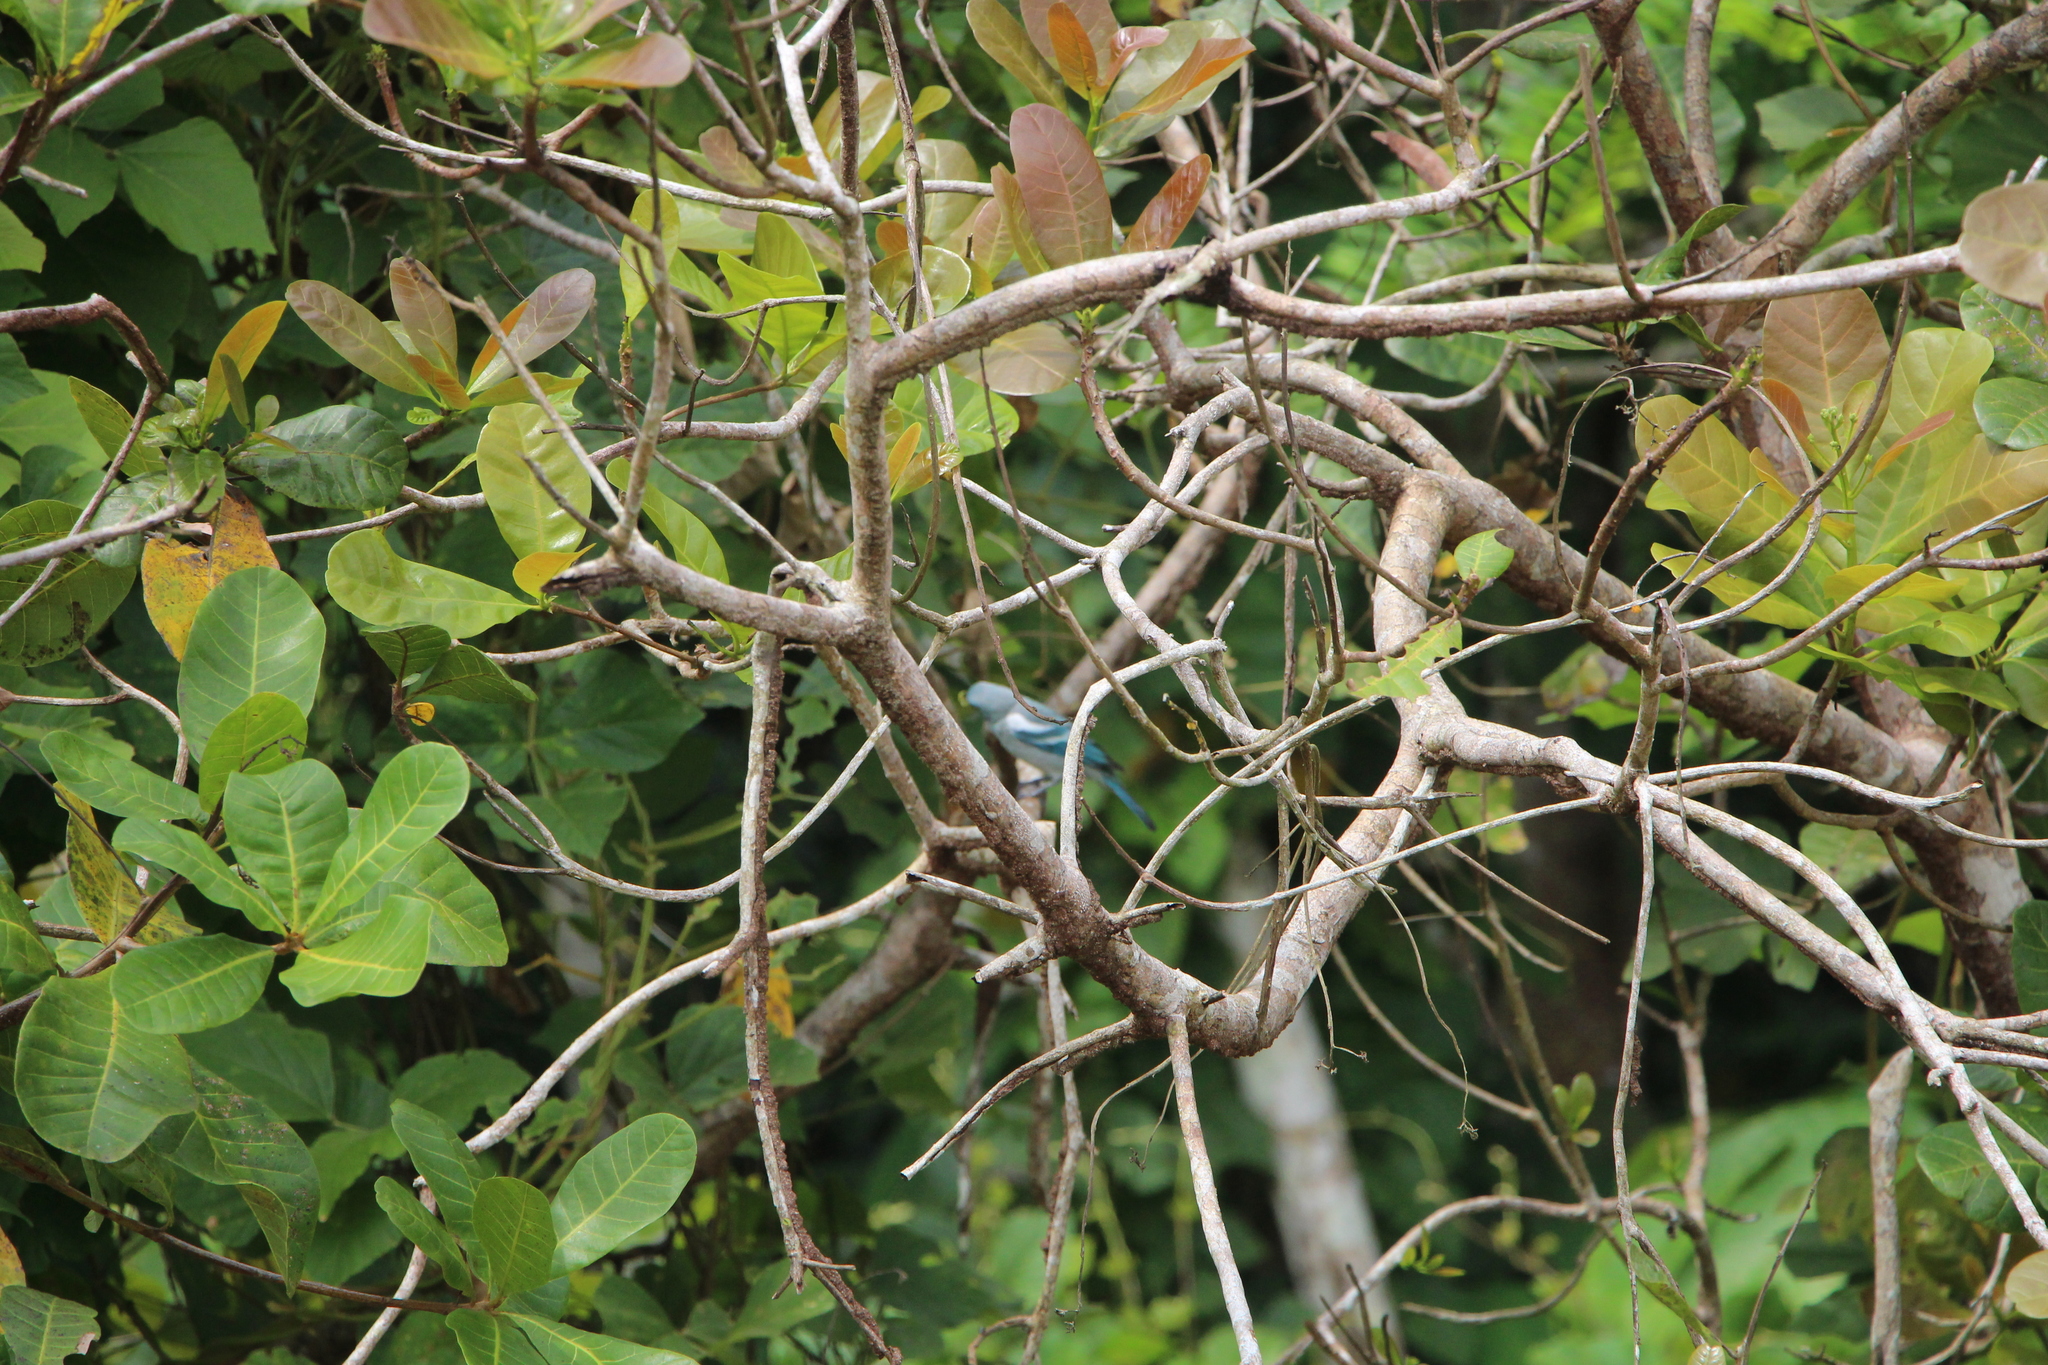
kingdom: Animalia
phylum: Chordata
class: Aves
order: Passeriformes
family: Thraupidae
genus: Thraupis
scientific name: Thraupis episcopus
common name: Blue-grey tanager
